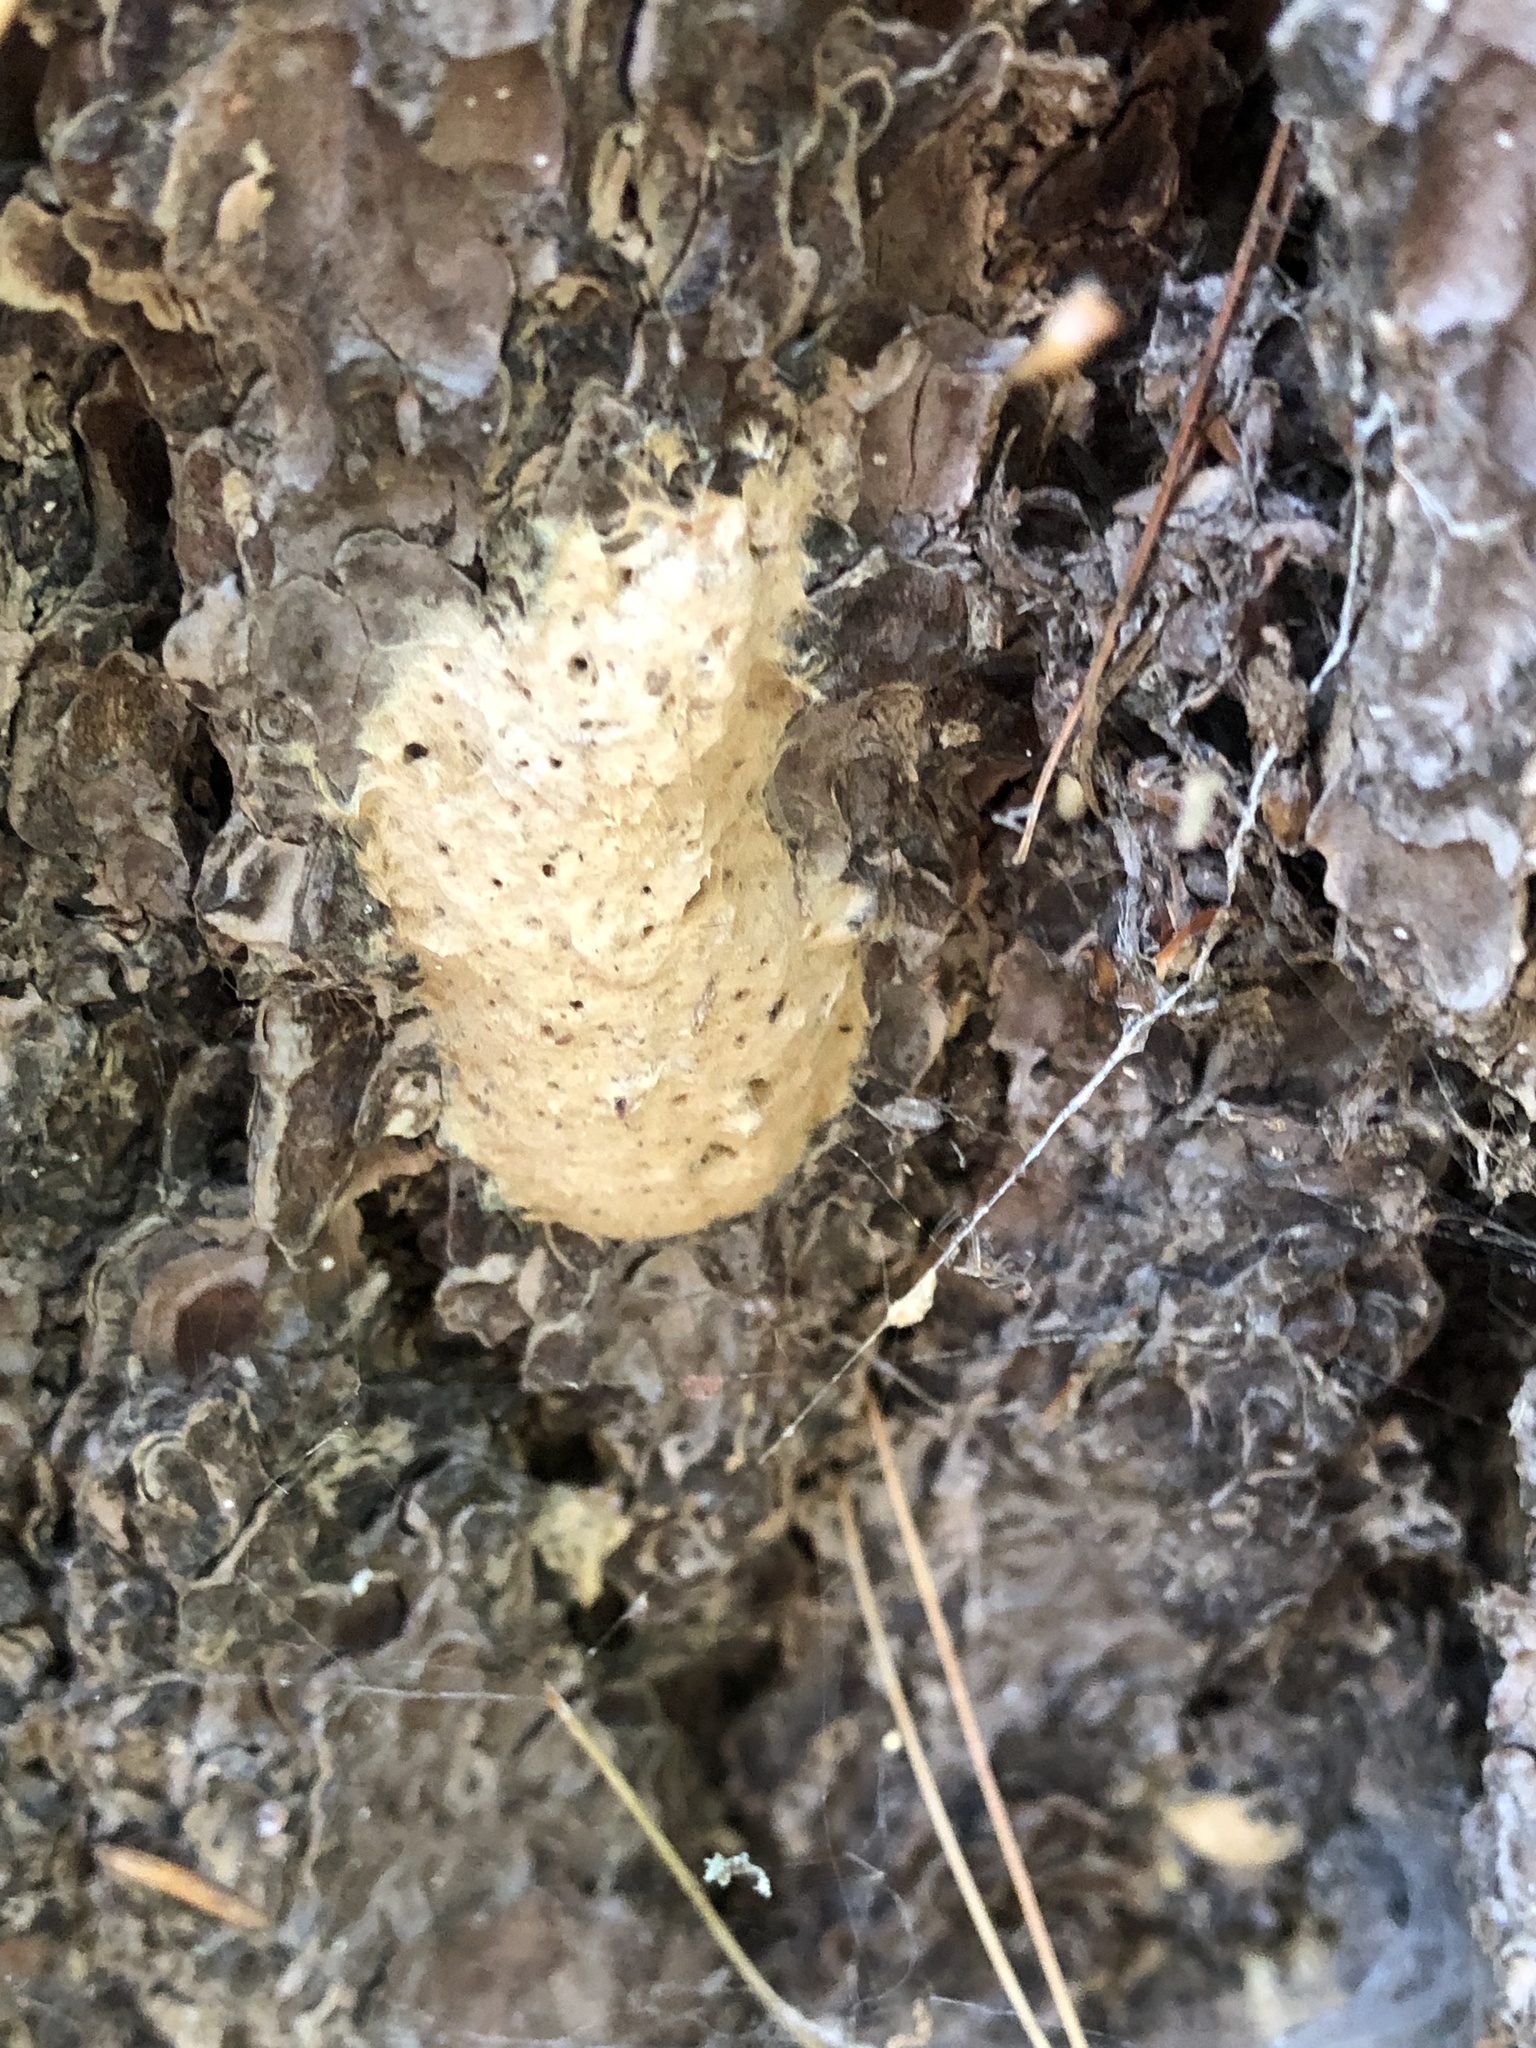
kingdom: Animalia
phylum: Arthropoda
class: Insecta
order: Lepidoptera
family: Erebidae
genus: Lymantria
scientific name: Lymantria dispar
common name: Gypsy moth
